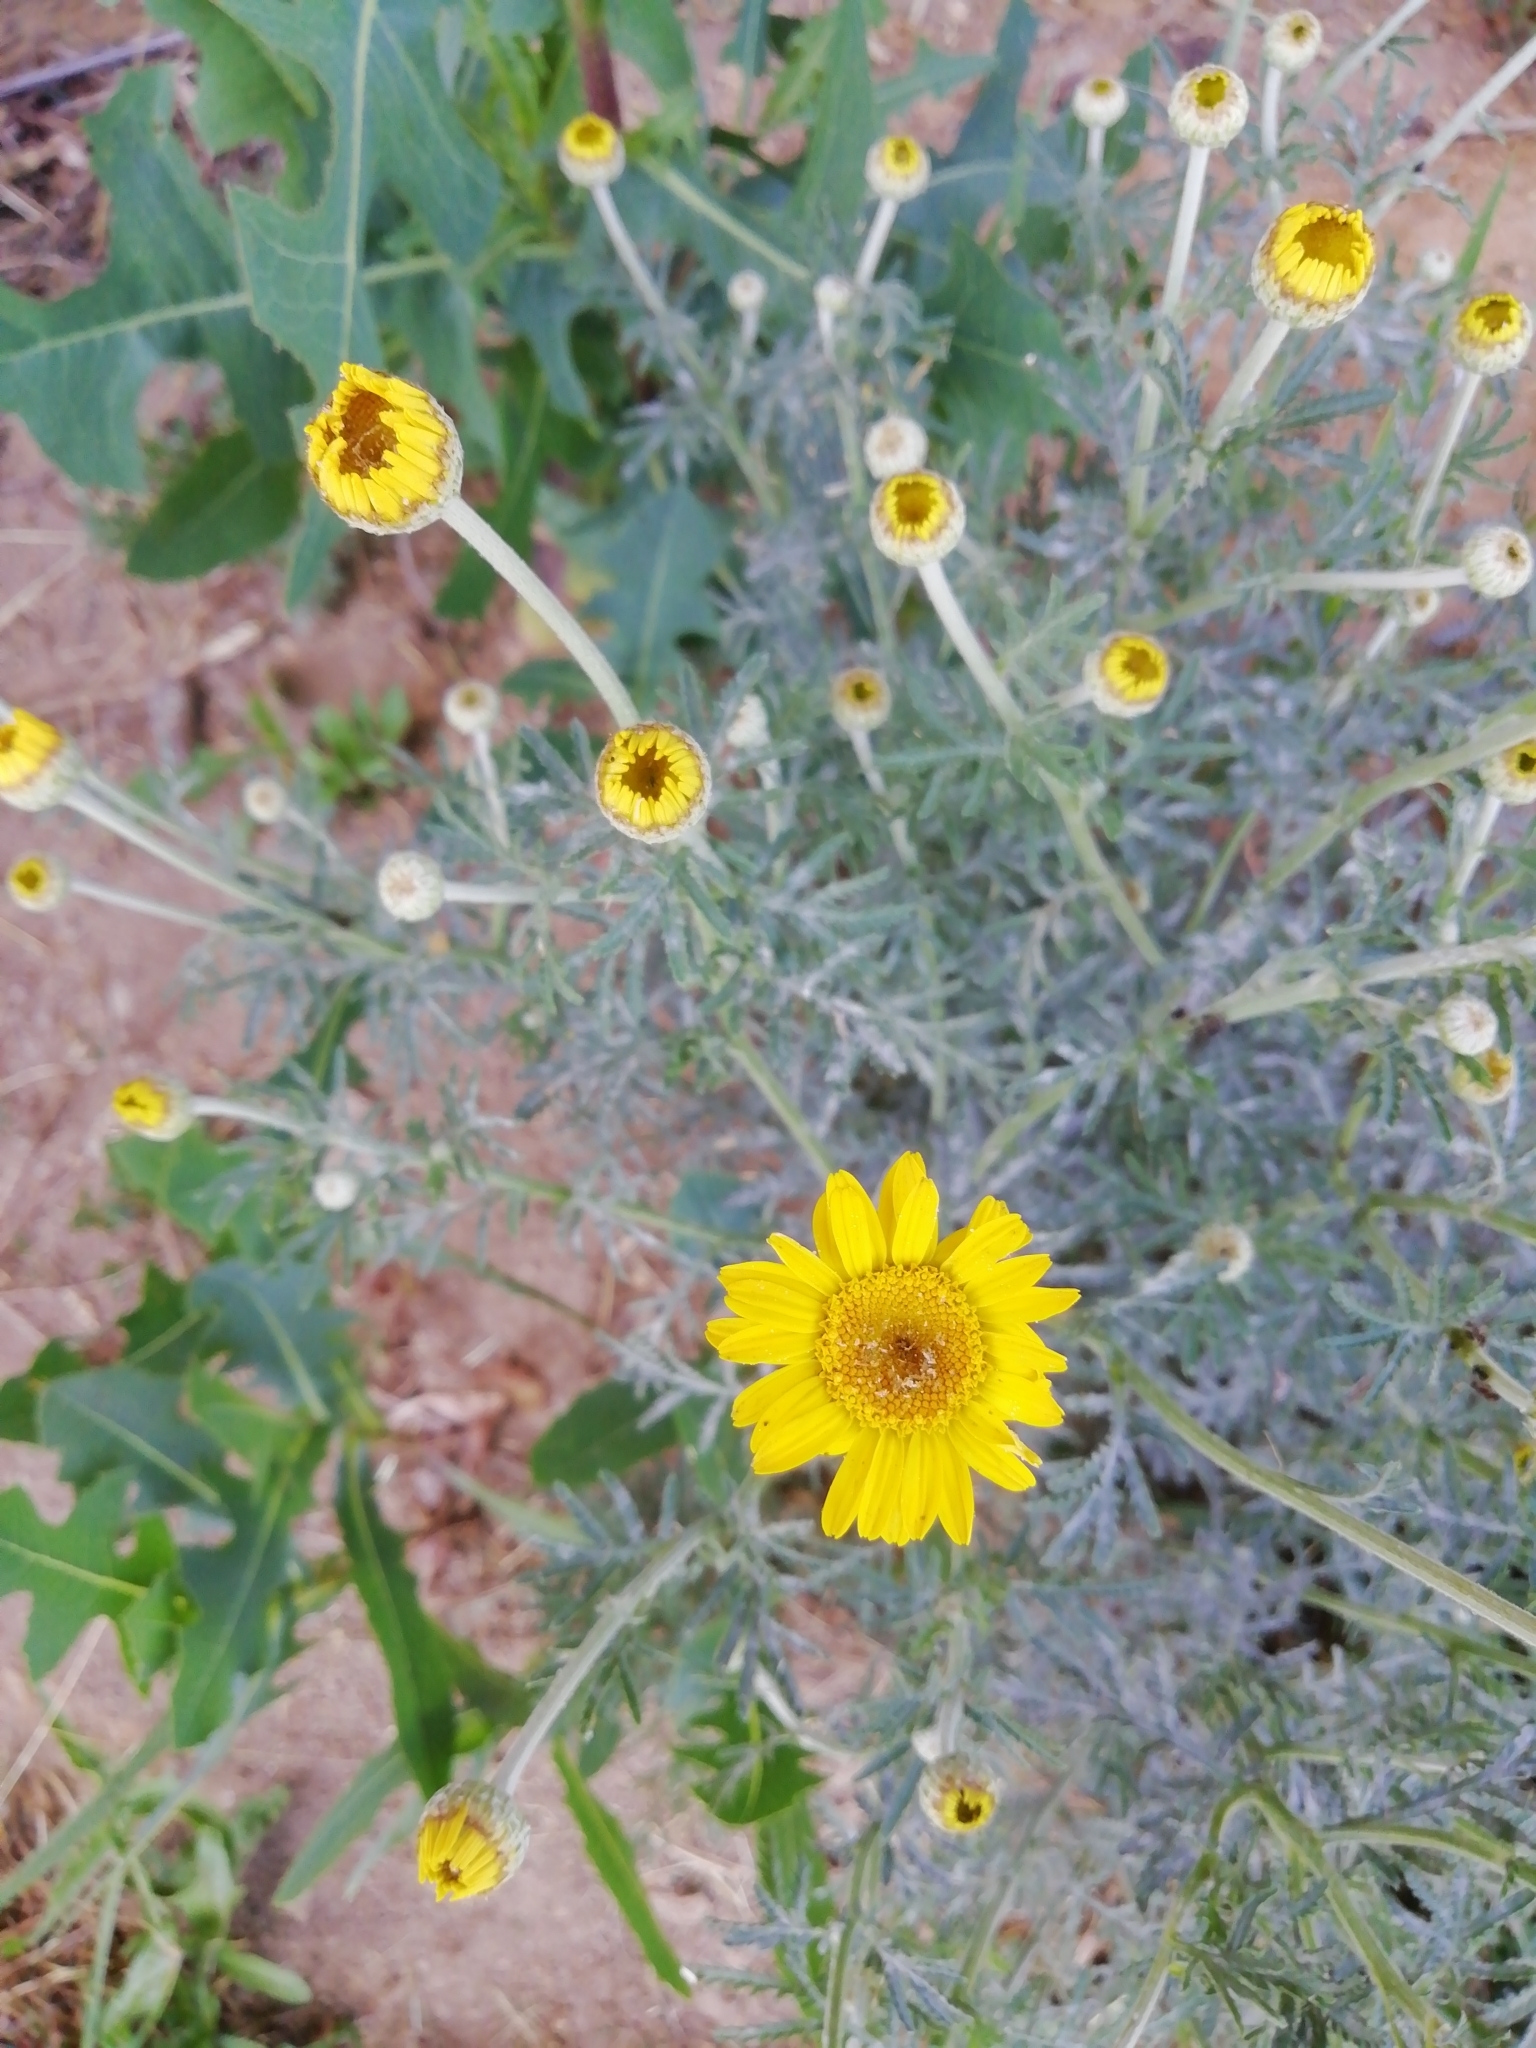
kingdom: Plantae
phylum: Tracheophyta
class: Magnoliopsida
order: Asterales
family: Asteraceae
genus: Cota
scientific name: Cota tinctoria
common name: Golden chamomile
